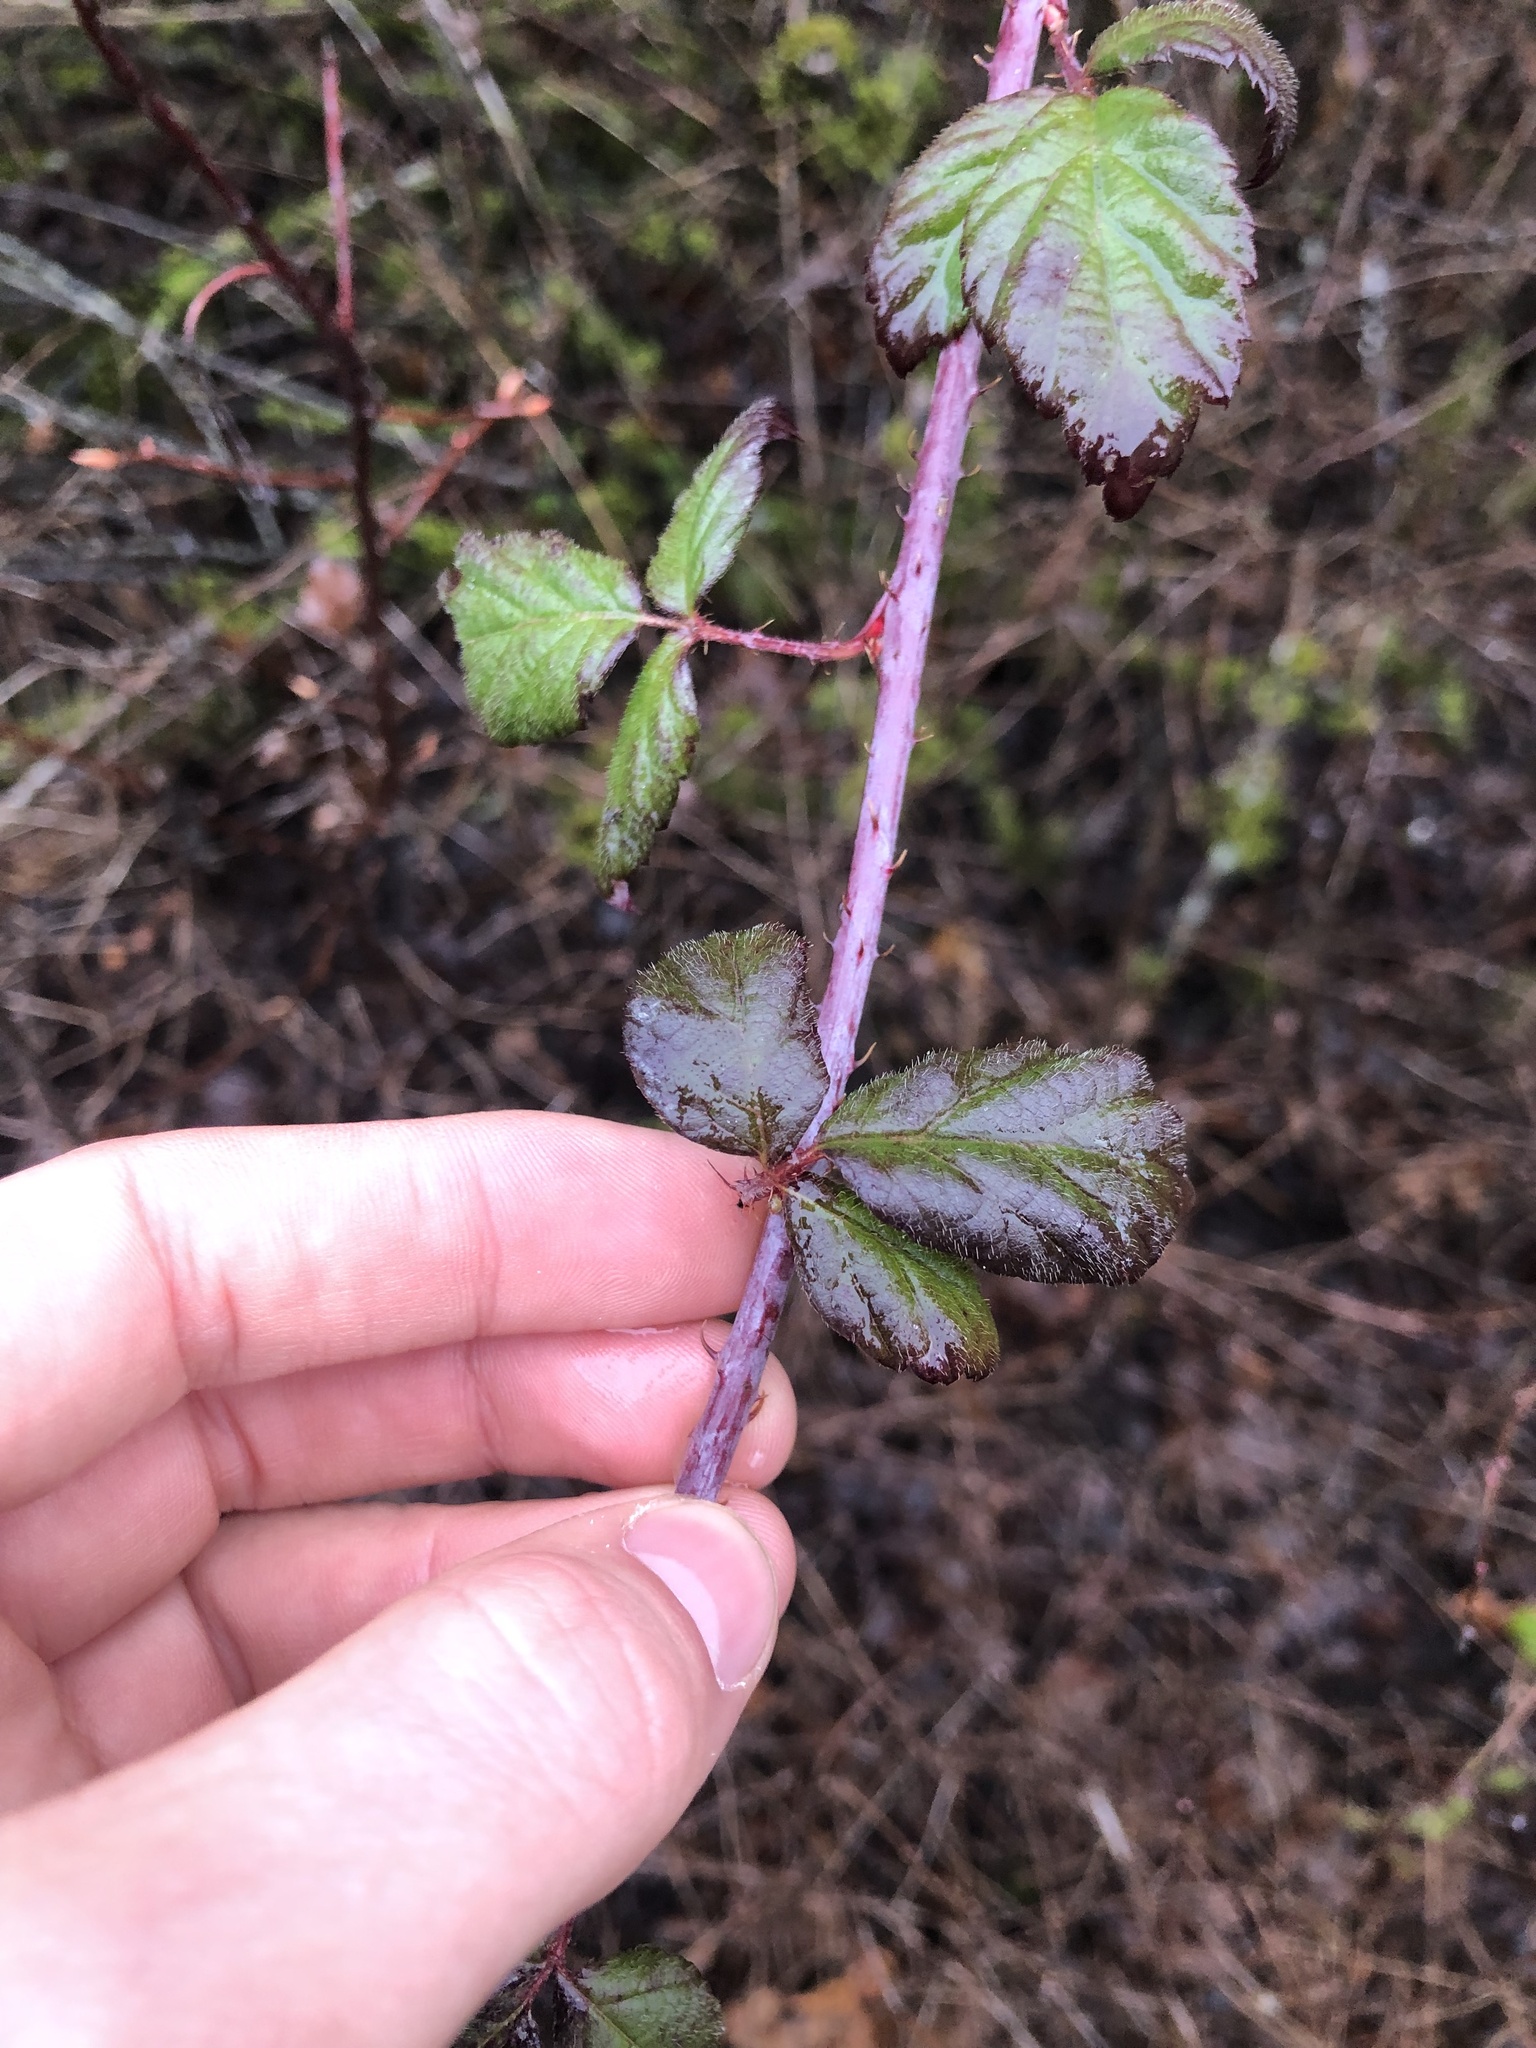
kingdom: Plantae
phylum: Tracheophyta
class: Magnoliopsida
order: Rosales
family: Rosaceae
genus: Rubus
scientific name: Rubus ursinus
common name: Pacific blackberry
